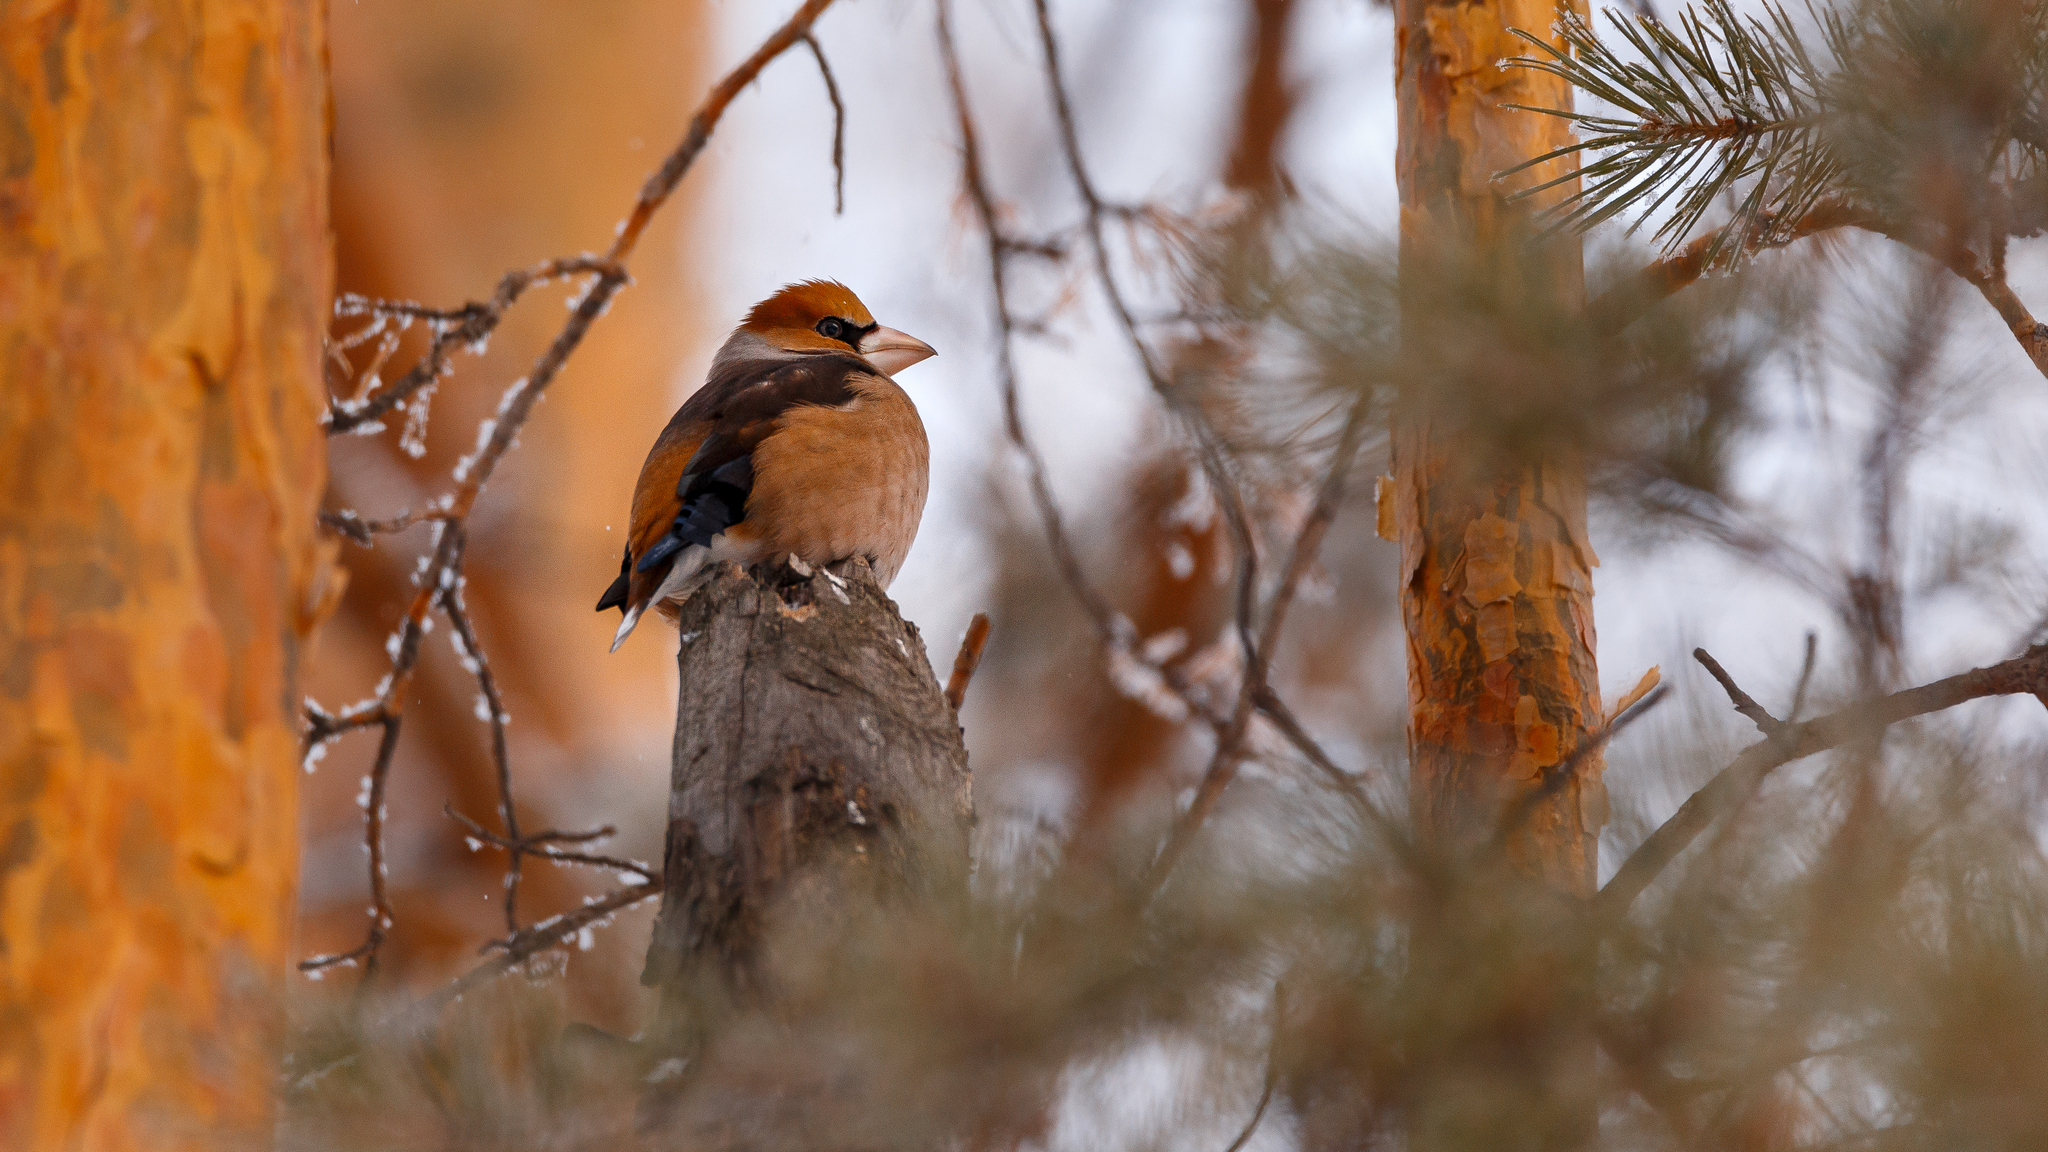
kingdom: Animalia
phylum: Chordata
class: Aves
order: Passeriformes
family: Fringillidae
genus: Coccothraustes
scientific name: Coccothraustes coccothraustes
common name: Hawfinch
